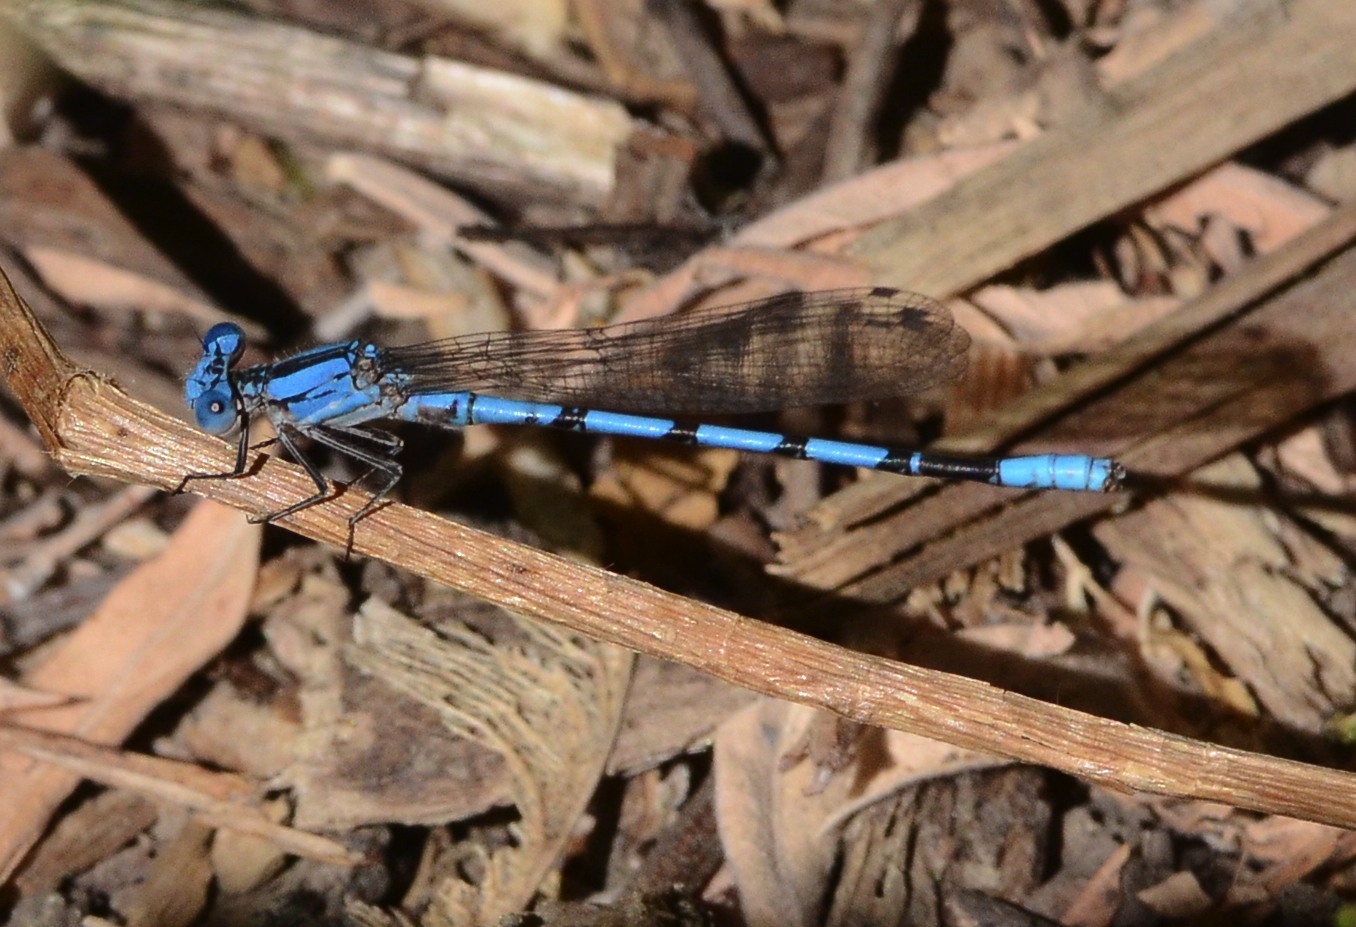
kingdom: Animalia
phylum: Arthropoda
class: Insecta
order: Odonata
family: Coenagrionidae
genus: Argia
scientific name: Argia agrioides
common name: California dancer
